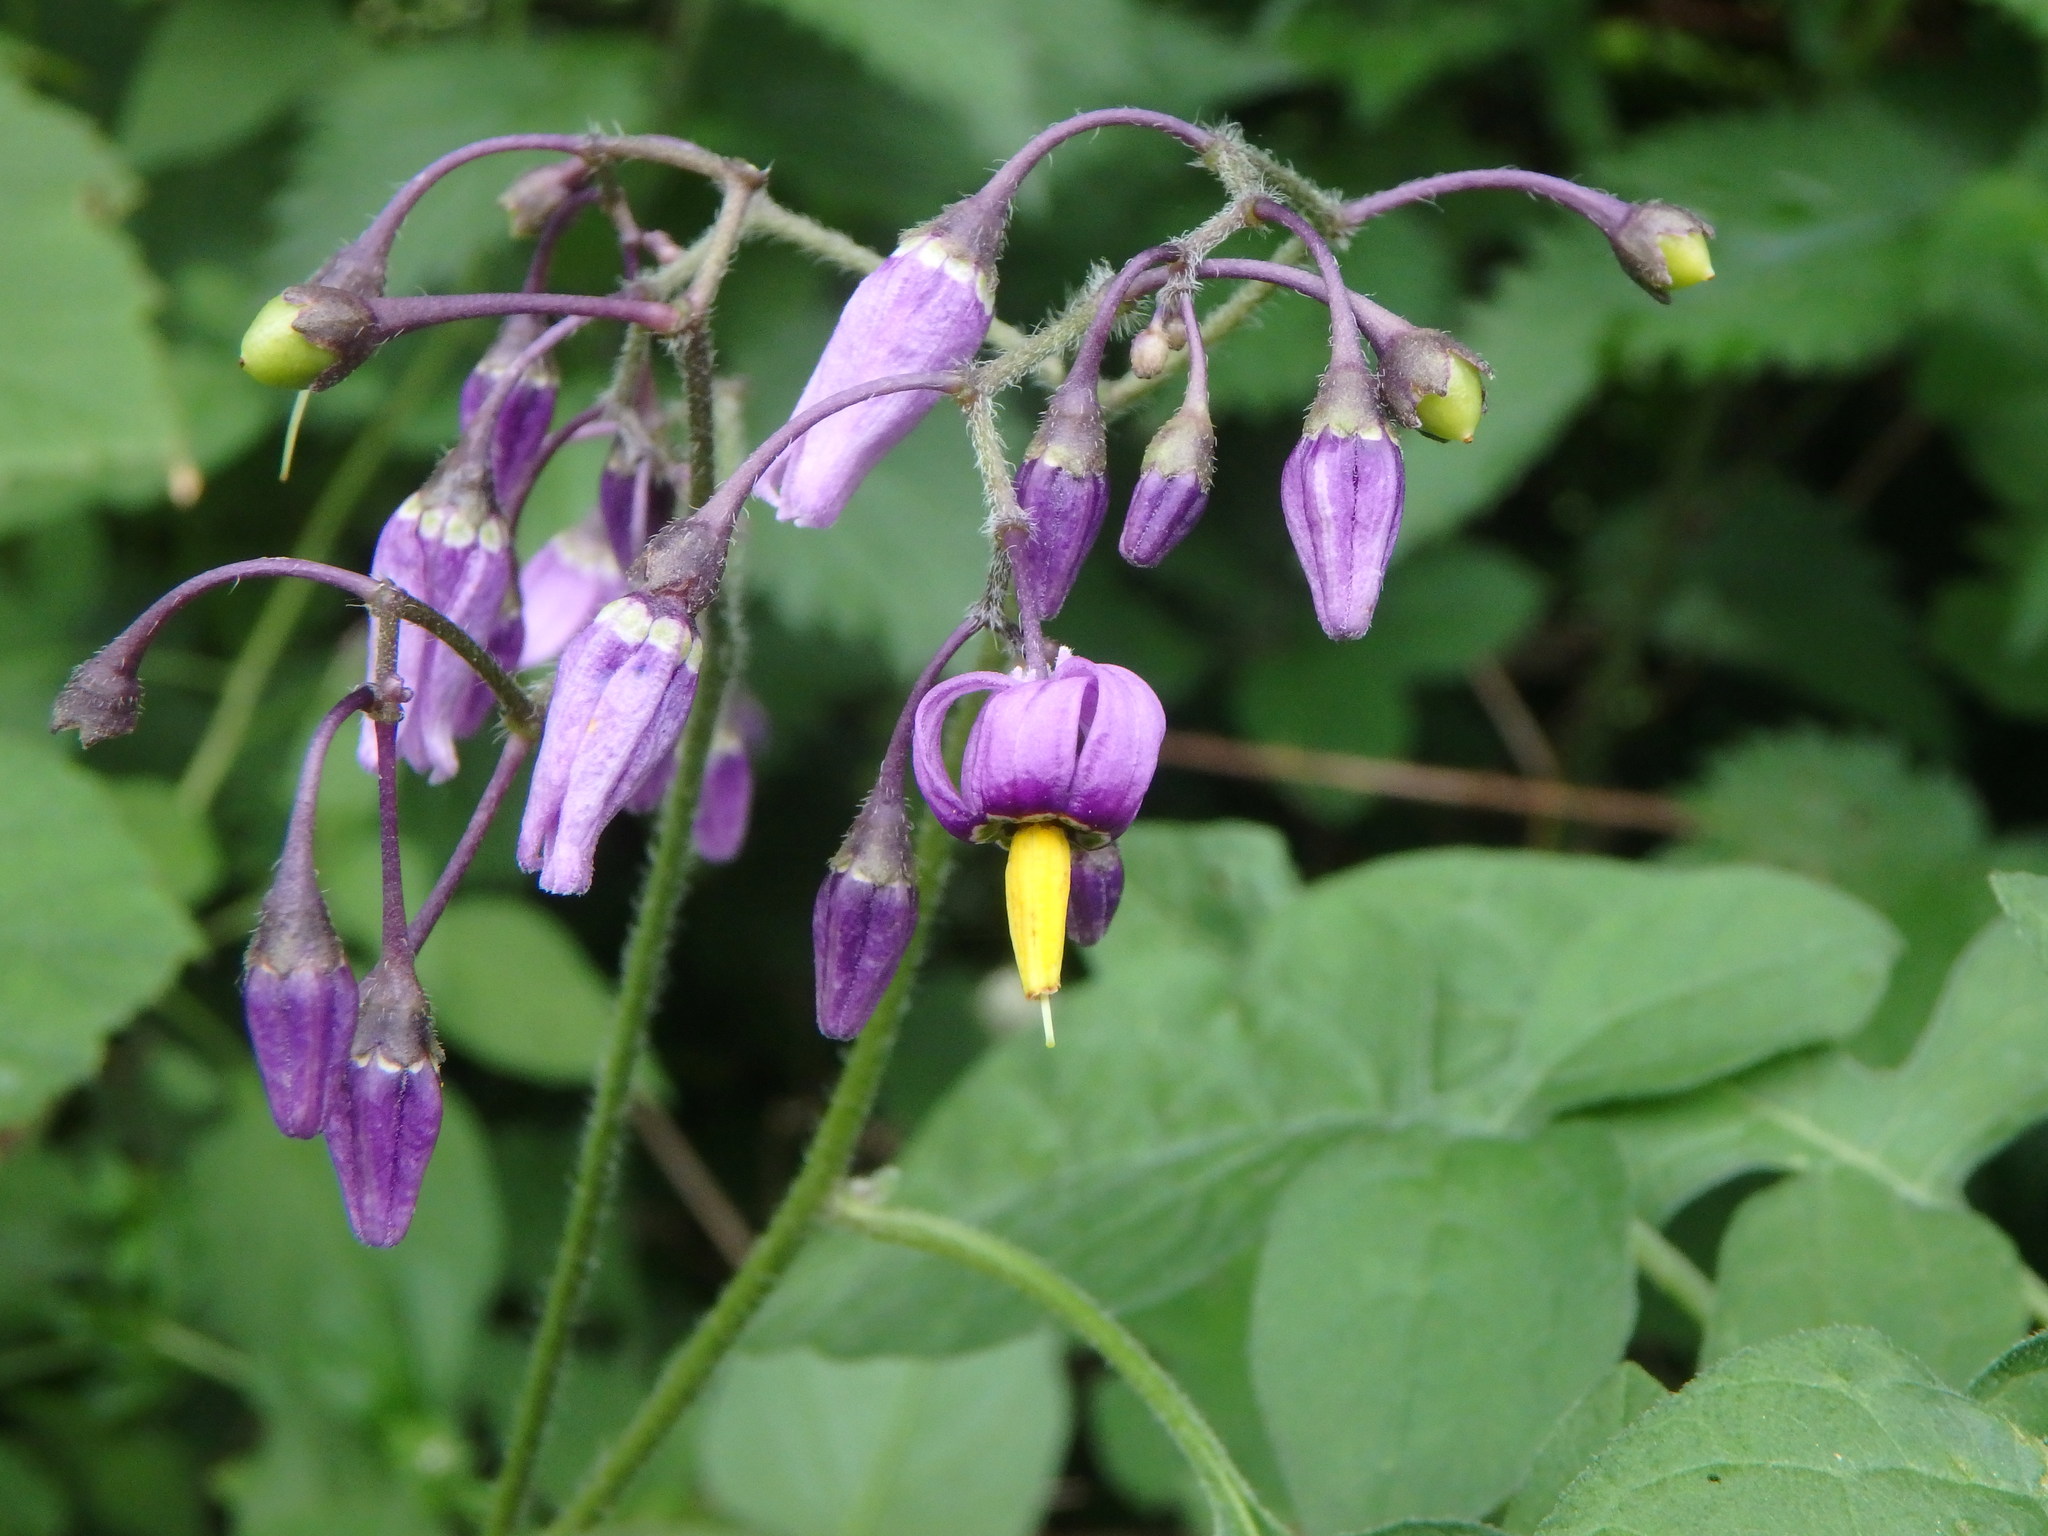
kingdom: Plantae
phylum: Tracheophyta
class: Magnoliopsida
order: Solanales
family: Solanaceae
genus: Solanum
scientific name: Solanum dulcamara
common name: Climbing nightshade
